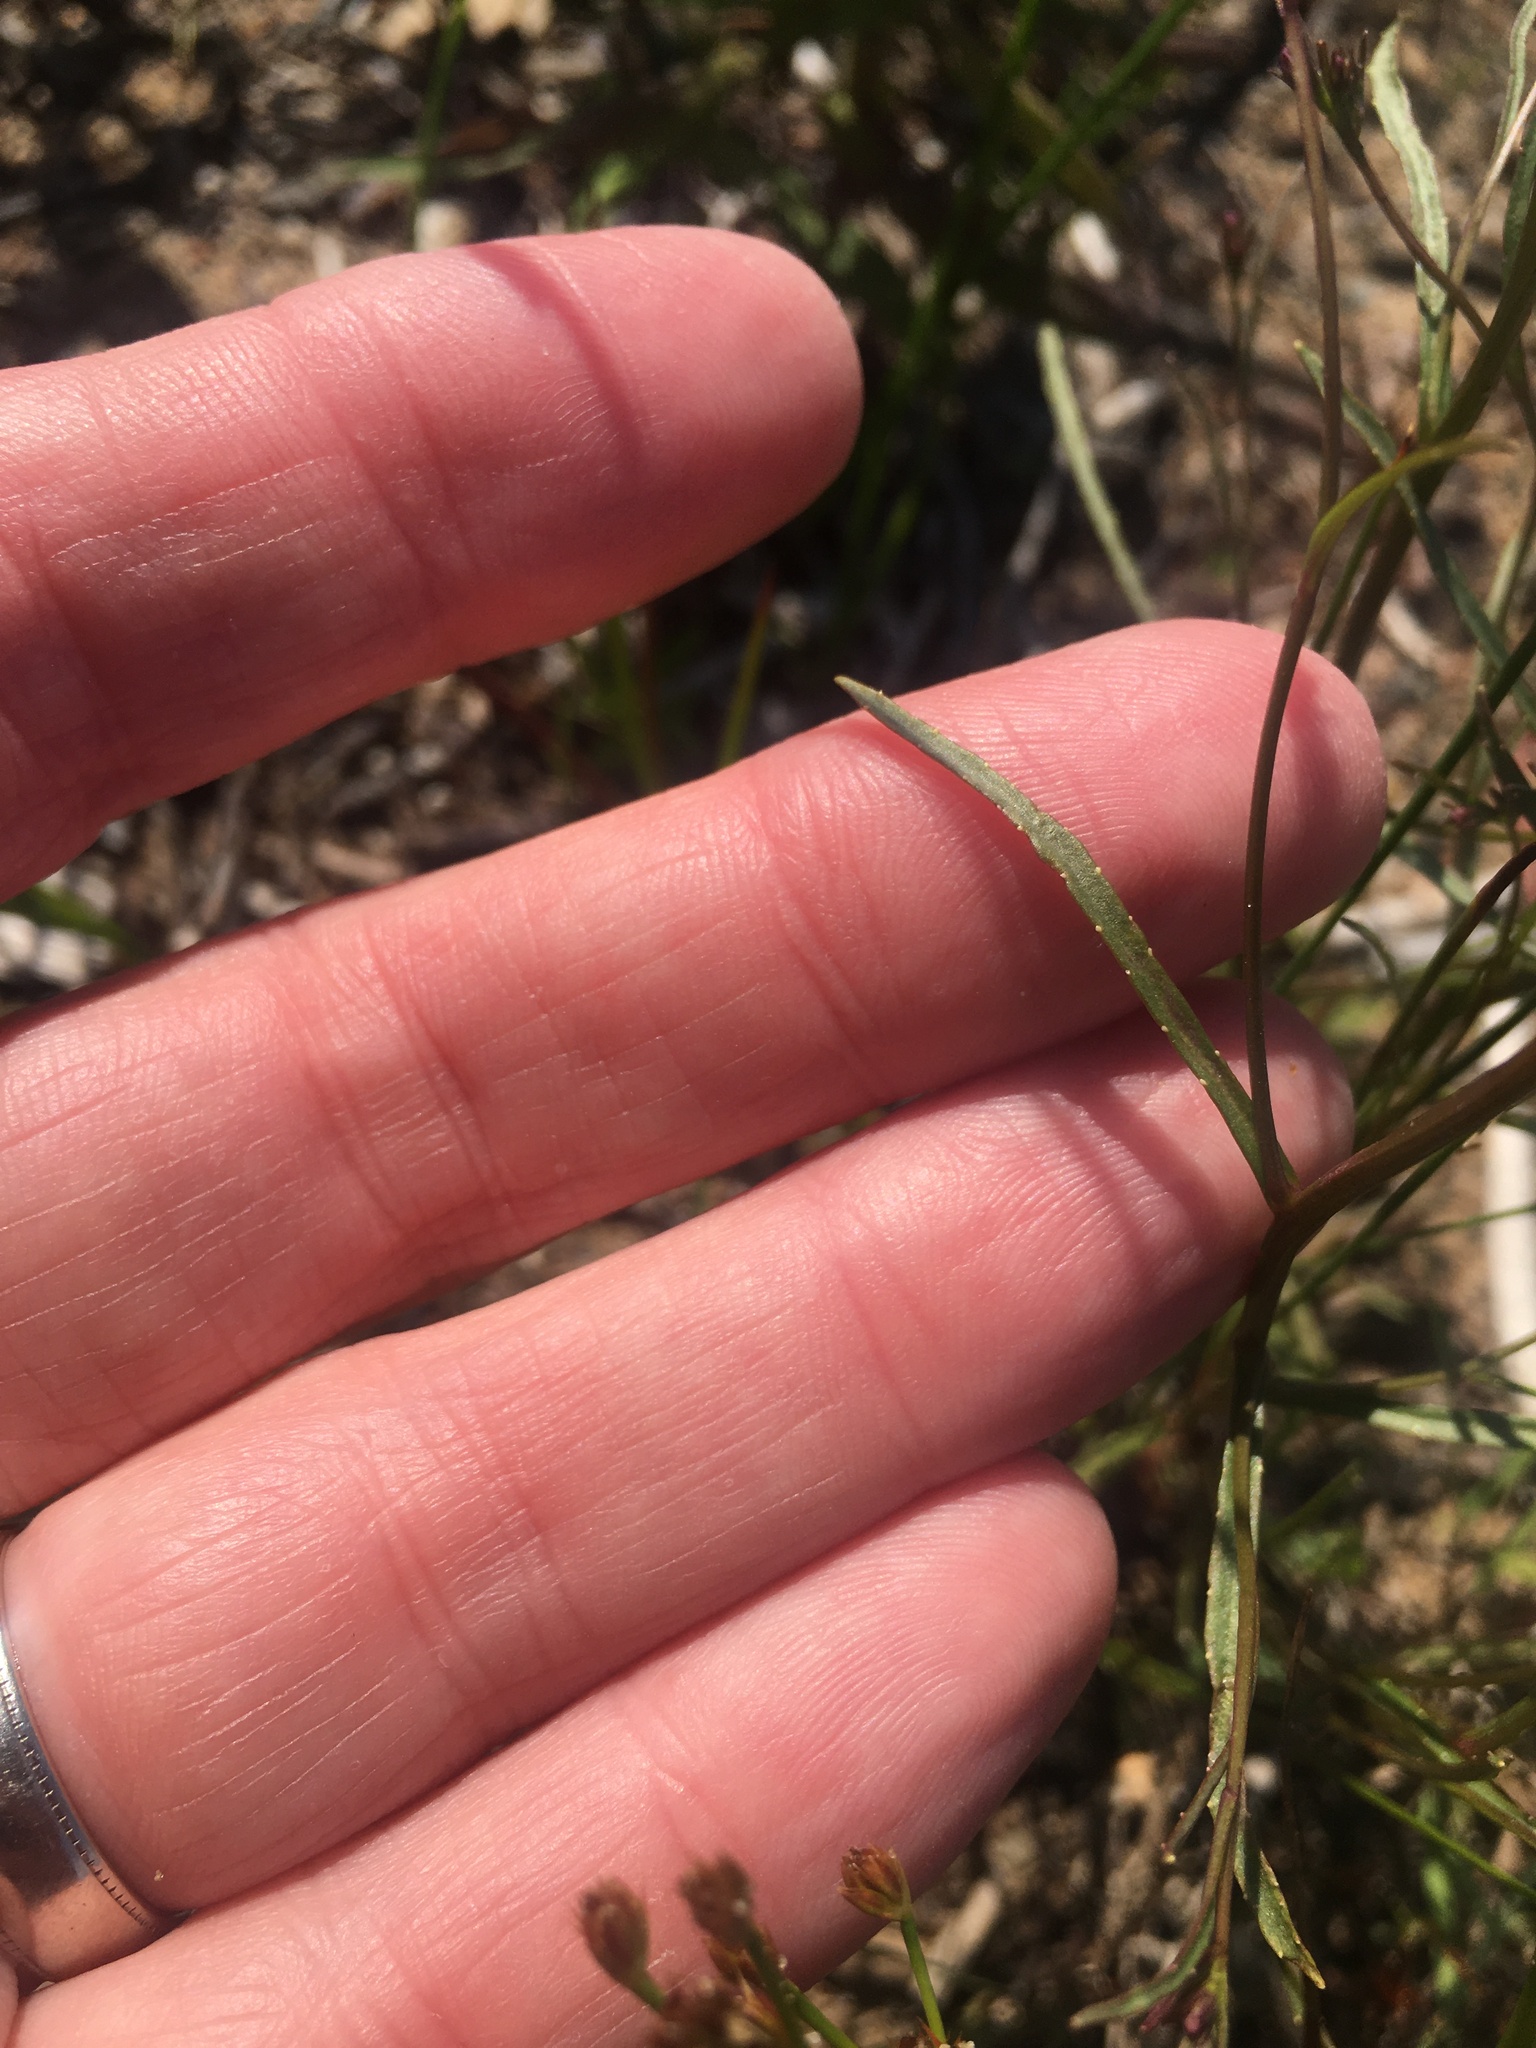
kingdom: Plantae
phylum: Tracheophyta
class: Magnoliopsida
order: Asterales
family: Campanulaceae
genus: Lobelia
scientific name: Lobelia kalmii
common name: Kalm's lobelia
